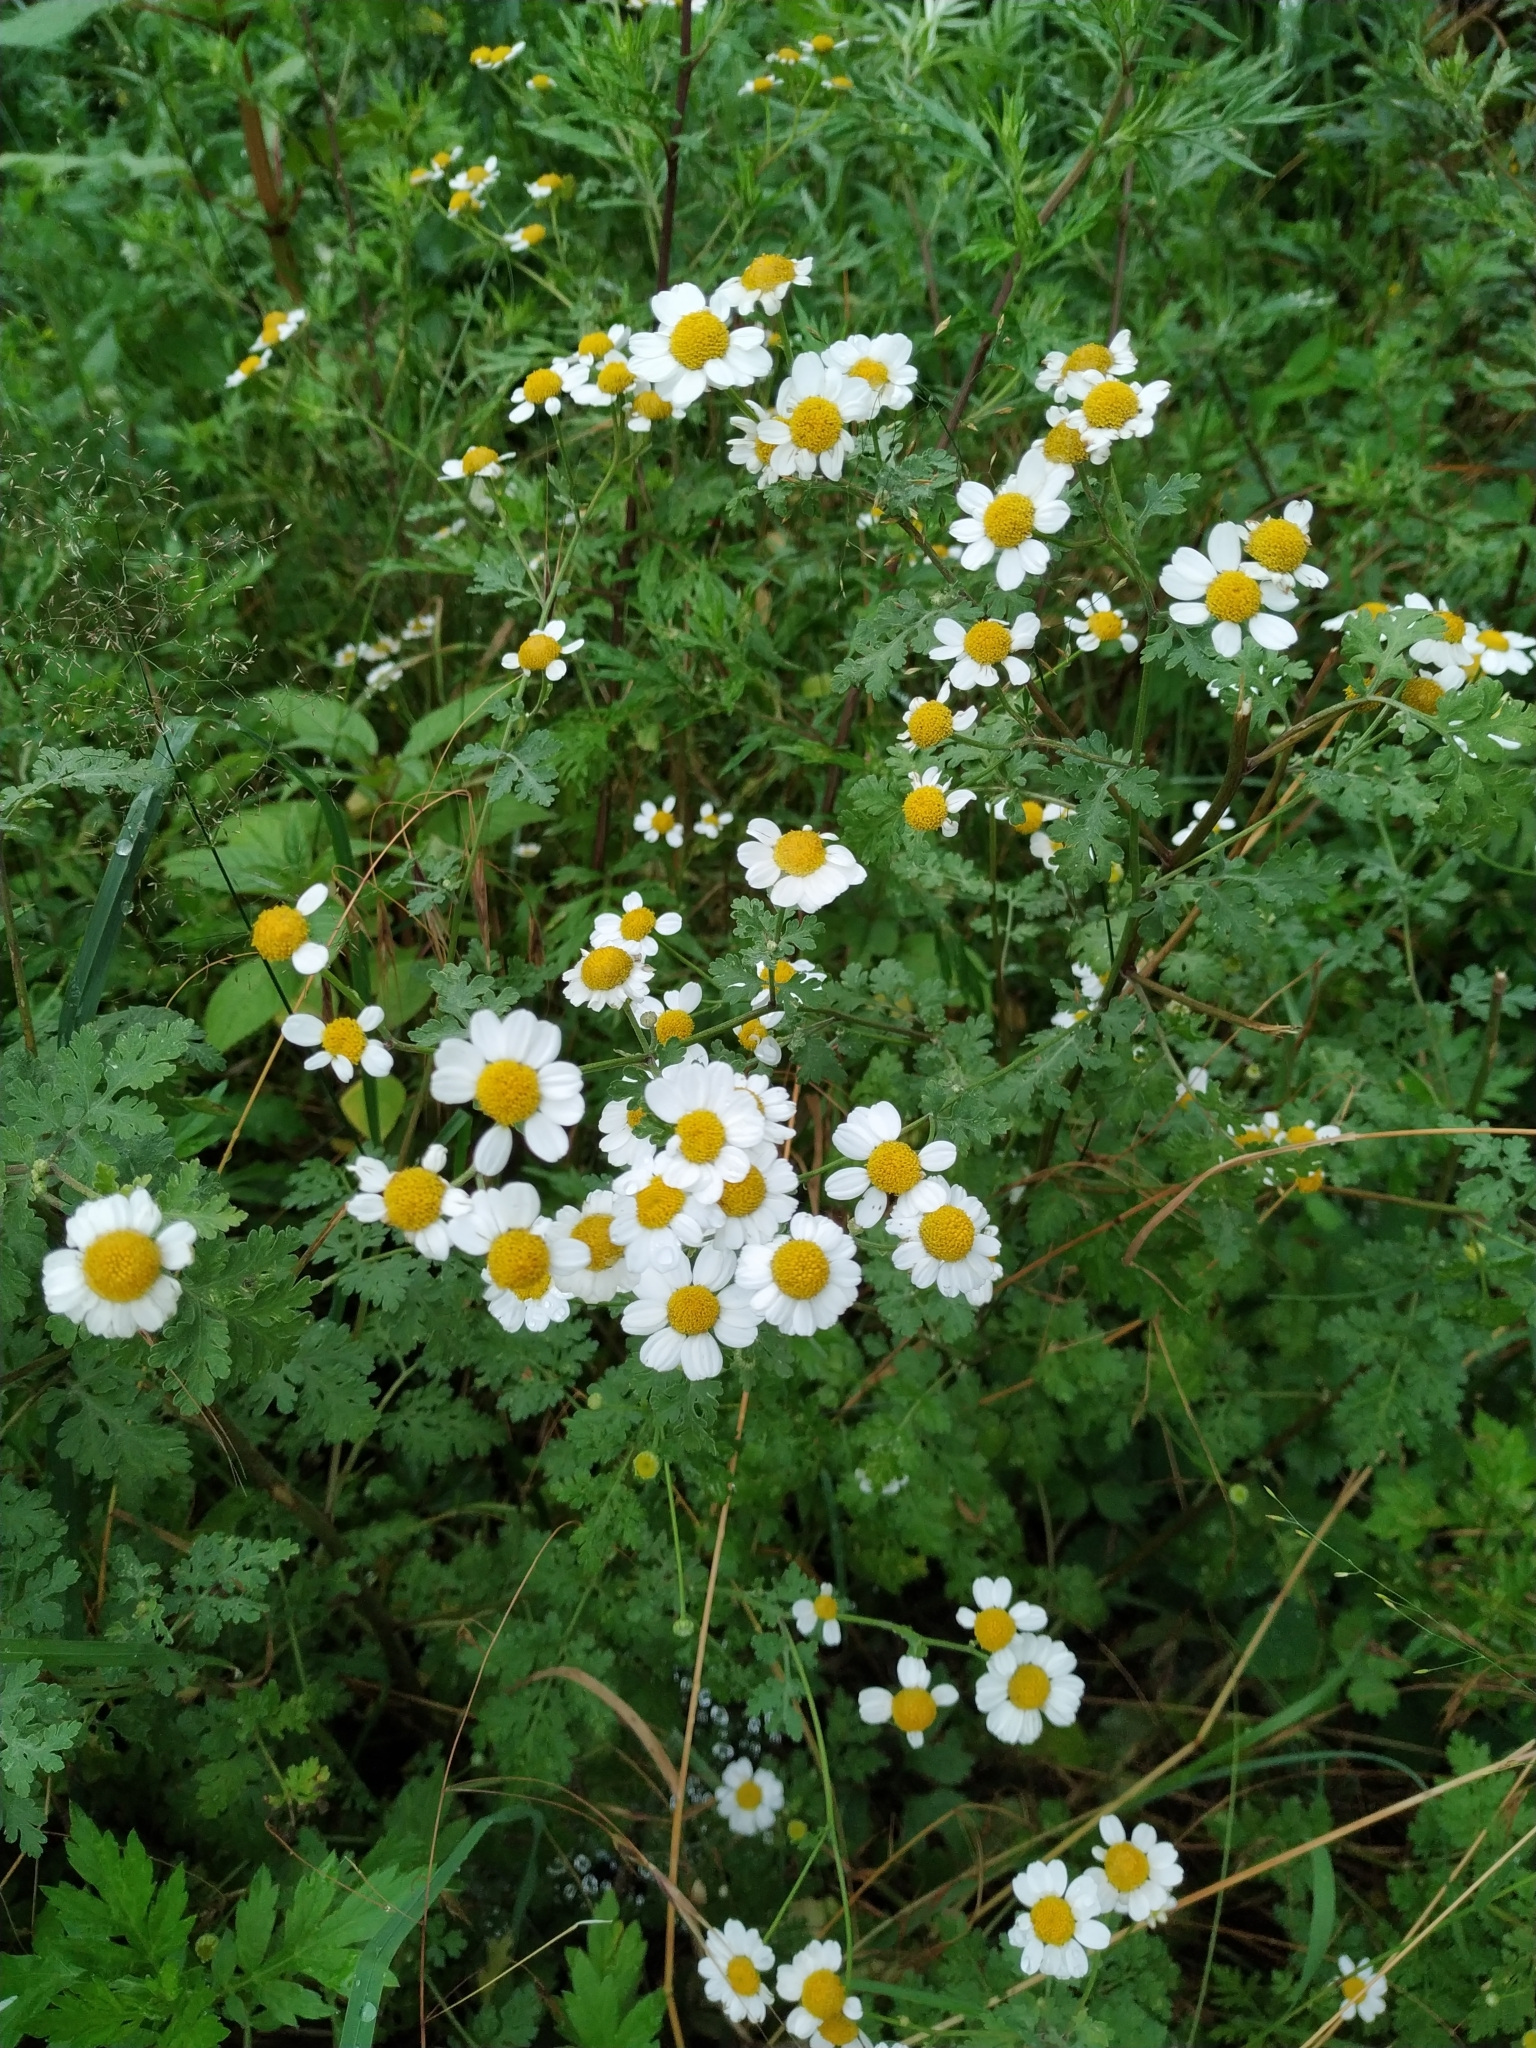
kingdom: Plantae
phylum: Tracheophyta
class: Magnoliopsida
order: Asterales
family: Asteraceae
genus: Tanacetum
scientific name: Tanacetum parthenium
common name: Feverfew
